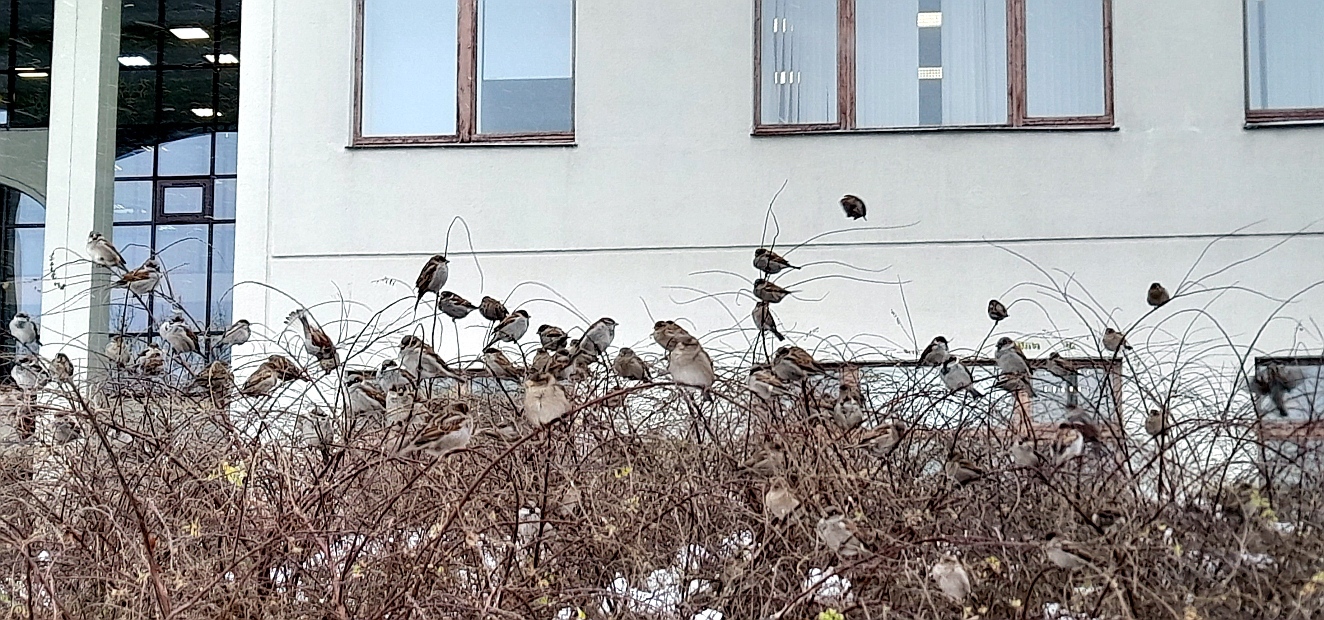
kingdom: Animalia
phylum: Chordata
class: Aves
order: Passeriformes
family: Passeridae
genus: Passer
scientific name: Passer domesticus
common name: House sparrow
